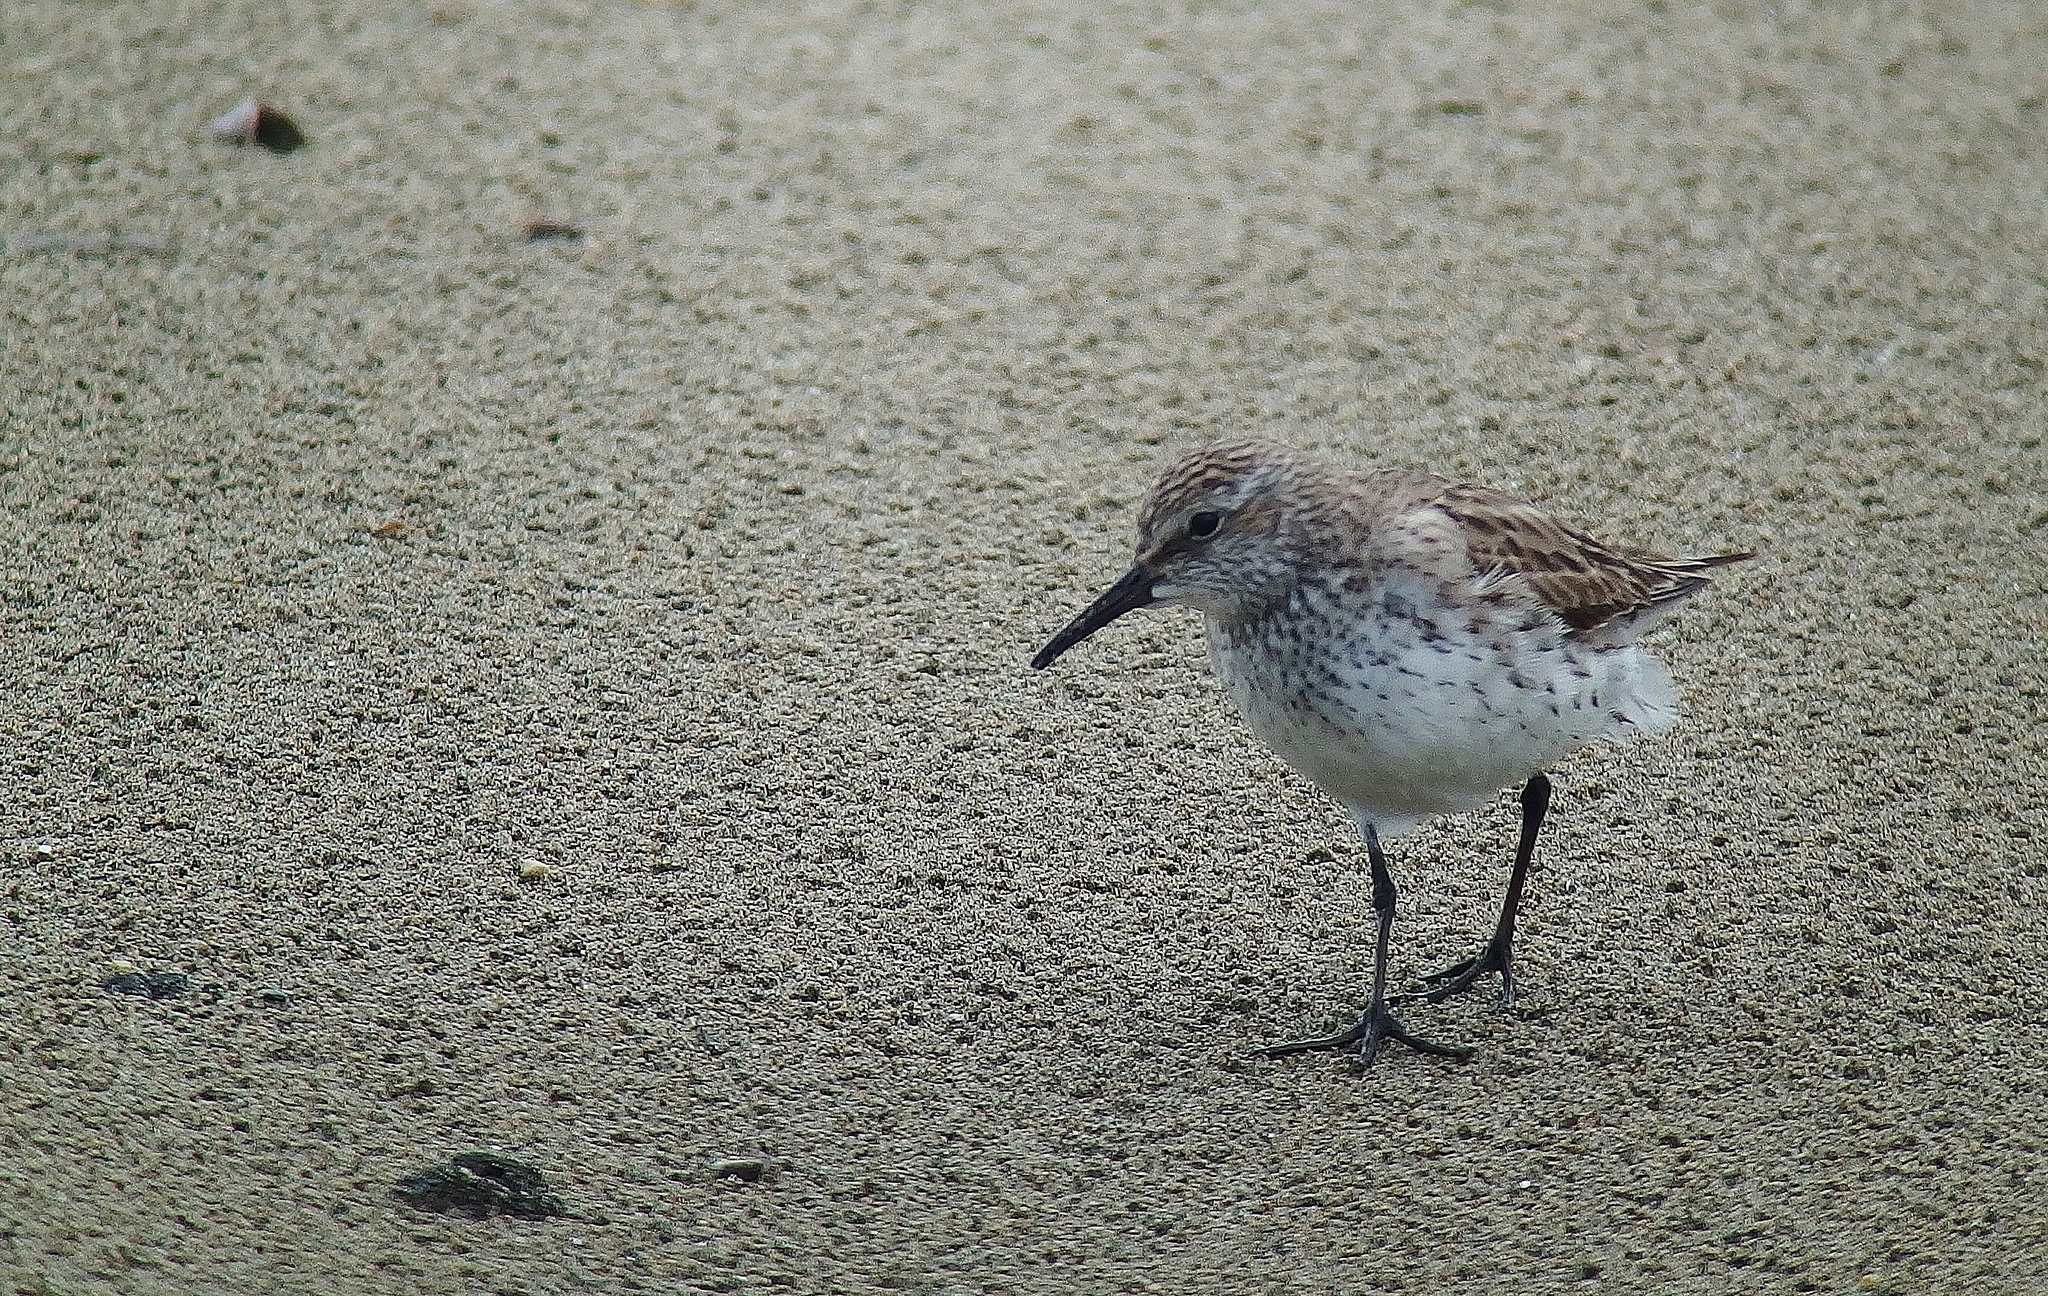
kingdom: Animalia
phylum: Chordata
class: Aves
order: Charadriiformes
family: Scolopacidae
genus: Calidris
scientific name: Calidris fuscicollis
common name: White-rumped sandpiper
